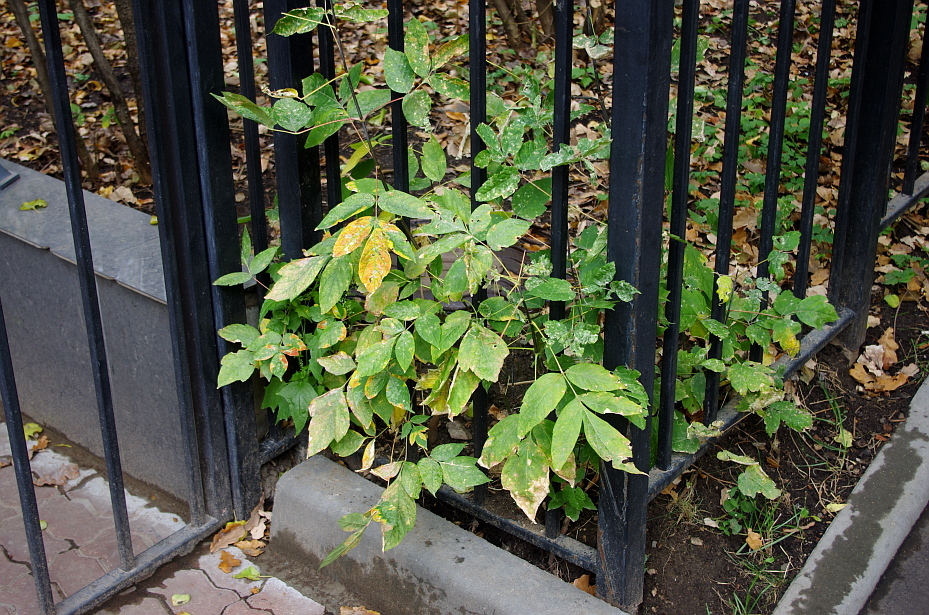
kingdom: Plantae
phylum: Tracheophyta
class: Magnoliopsida
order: Sapindales
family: Sapindaceae
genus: Acer
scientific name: Acer negundo
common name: Ashleaf maple
